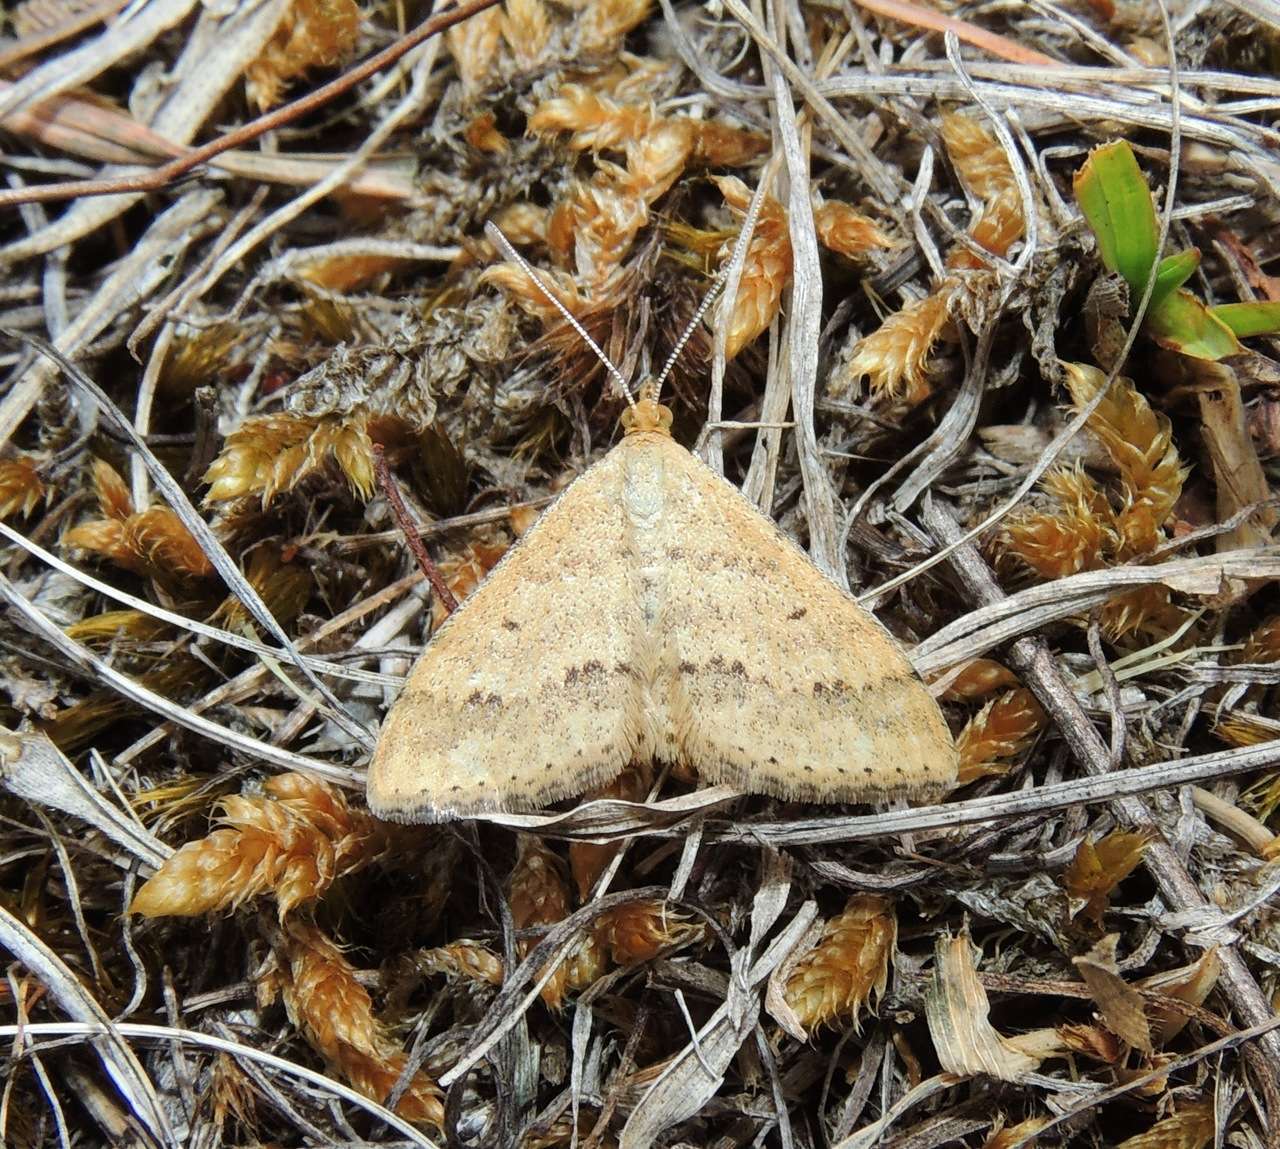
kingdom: Animalia
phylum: Arthropoda
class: Insecta
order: Lepidoptera
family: Geometridae
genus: Scopula
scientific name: Scopula rubraria
